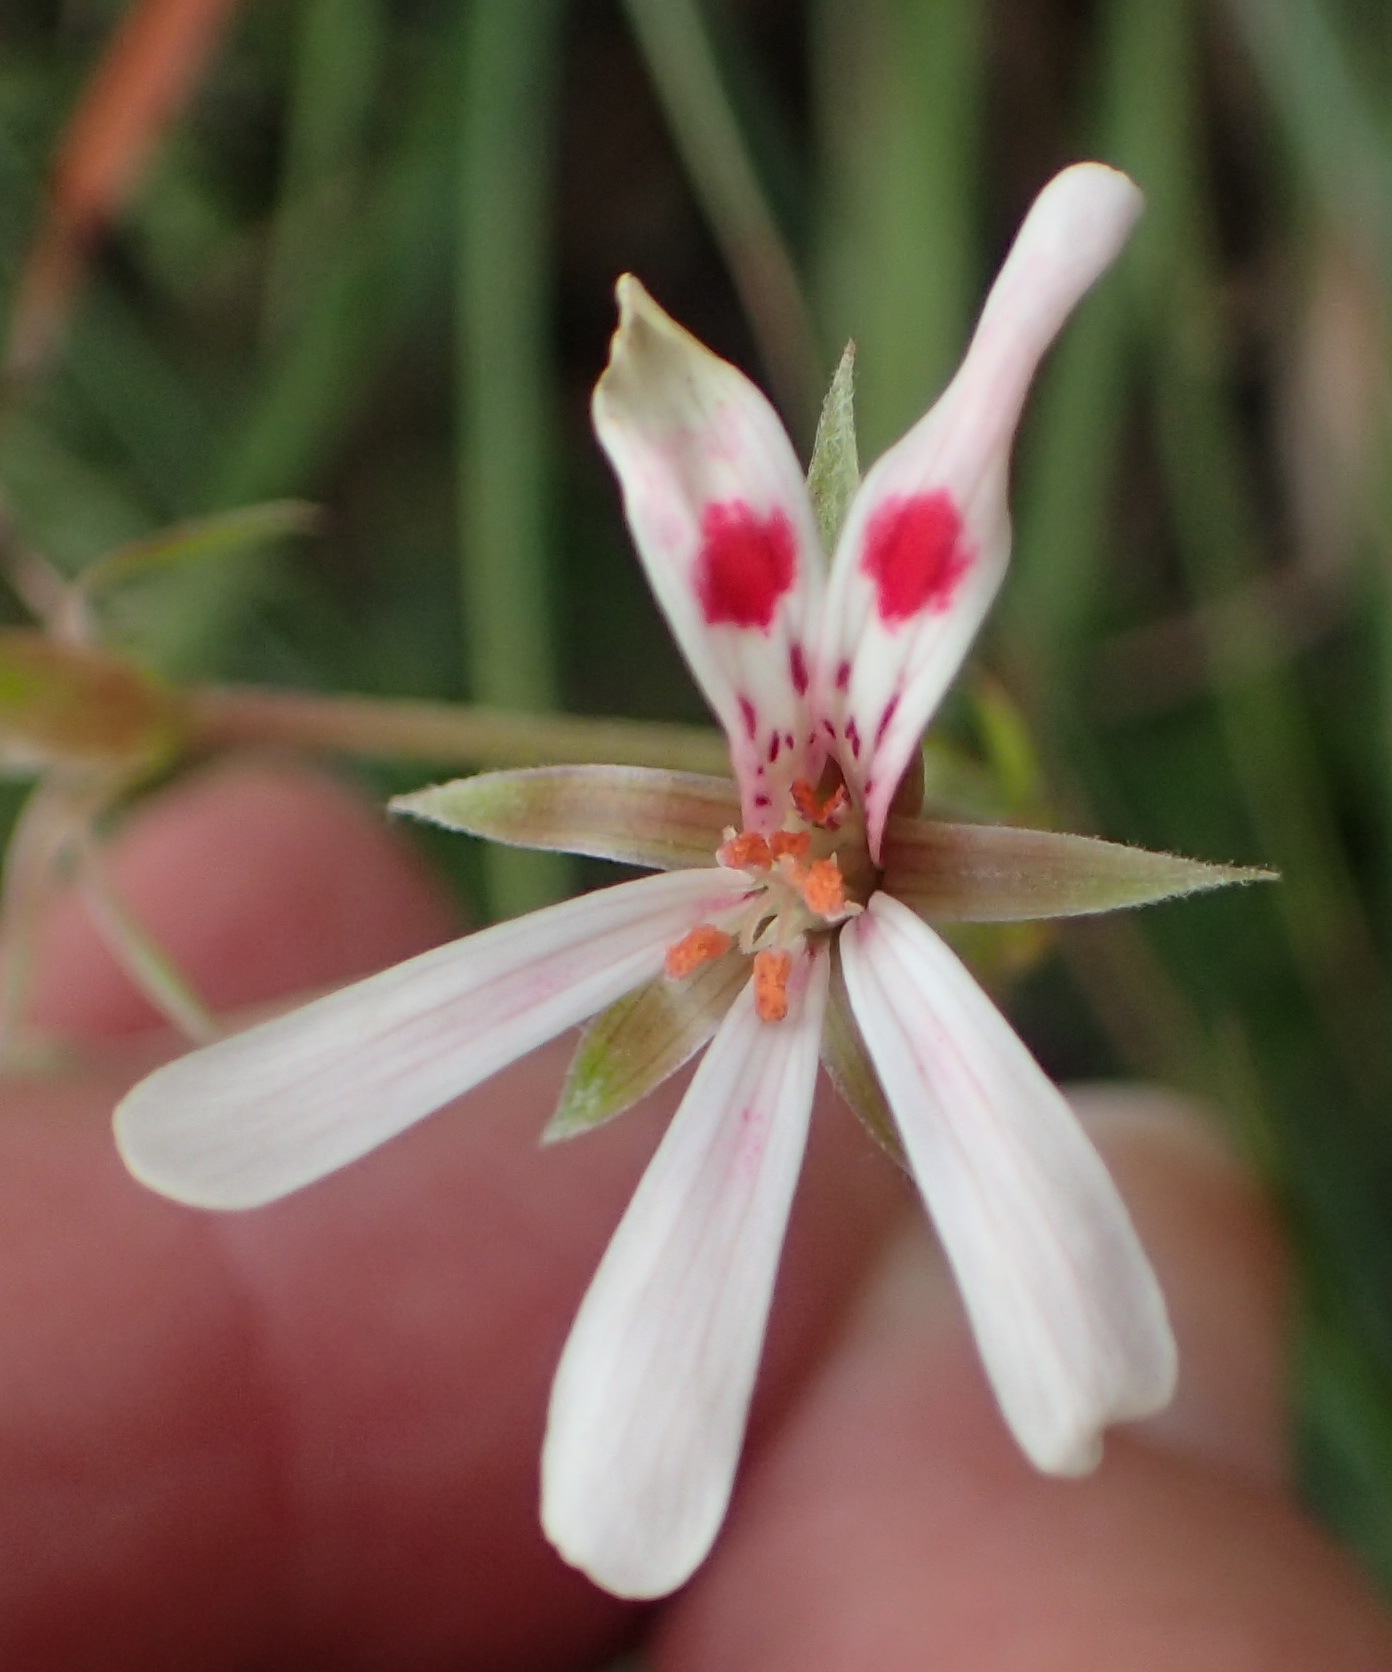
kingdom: Plantae
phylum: Tracheophyta
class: Magnoliopsida
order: Geraniales
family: Geraniaceae
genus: Pelargonium
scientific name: Pelargonium ranunculophyllum
